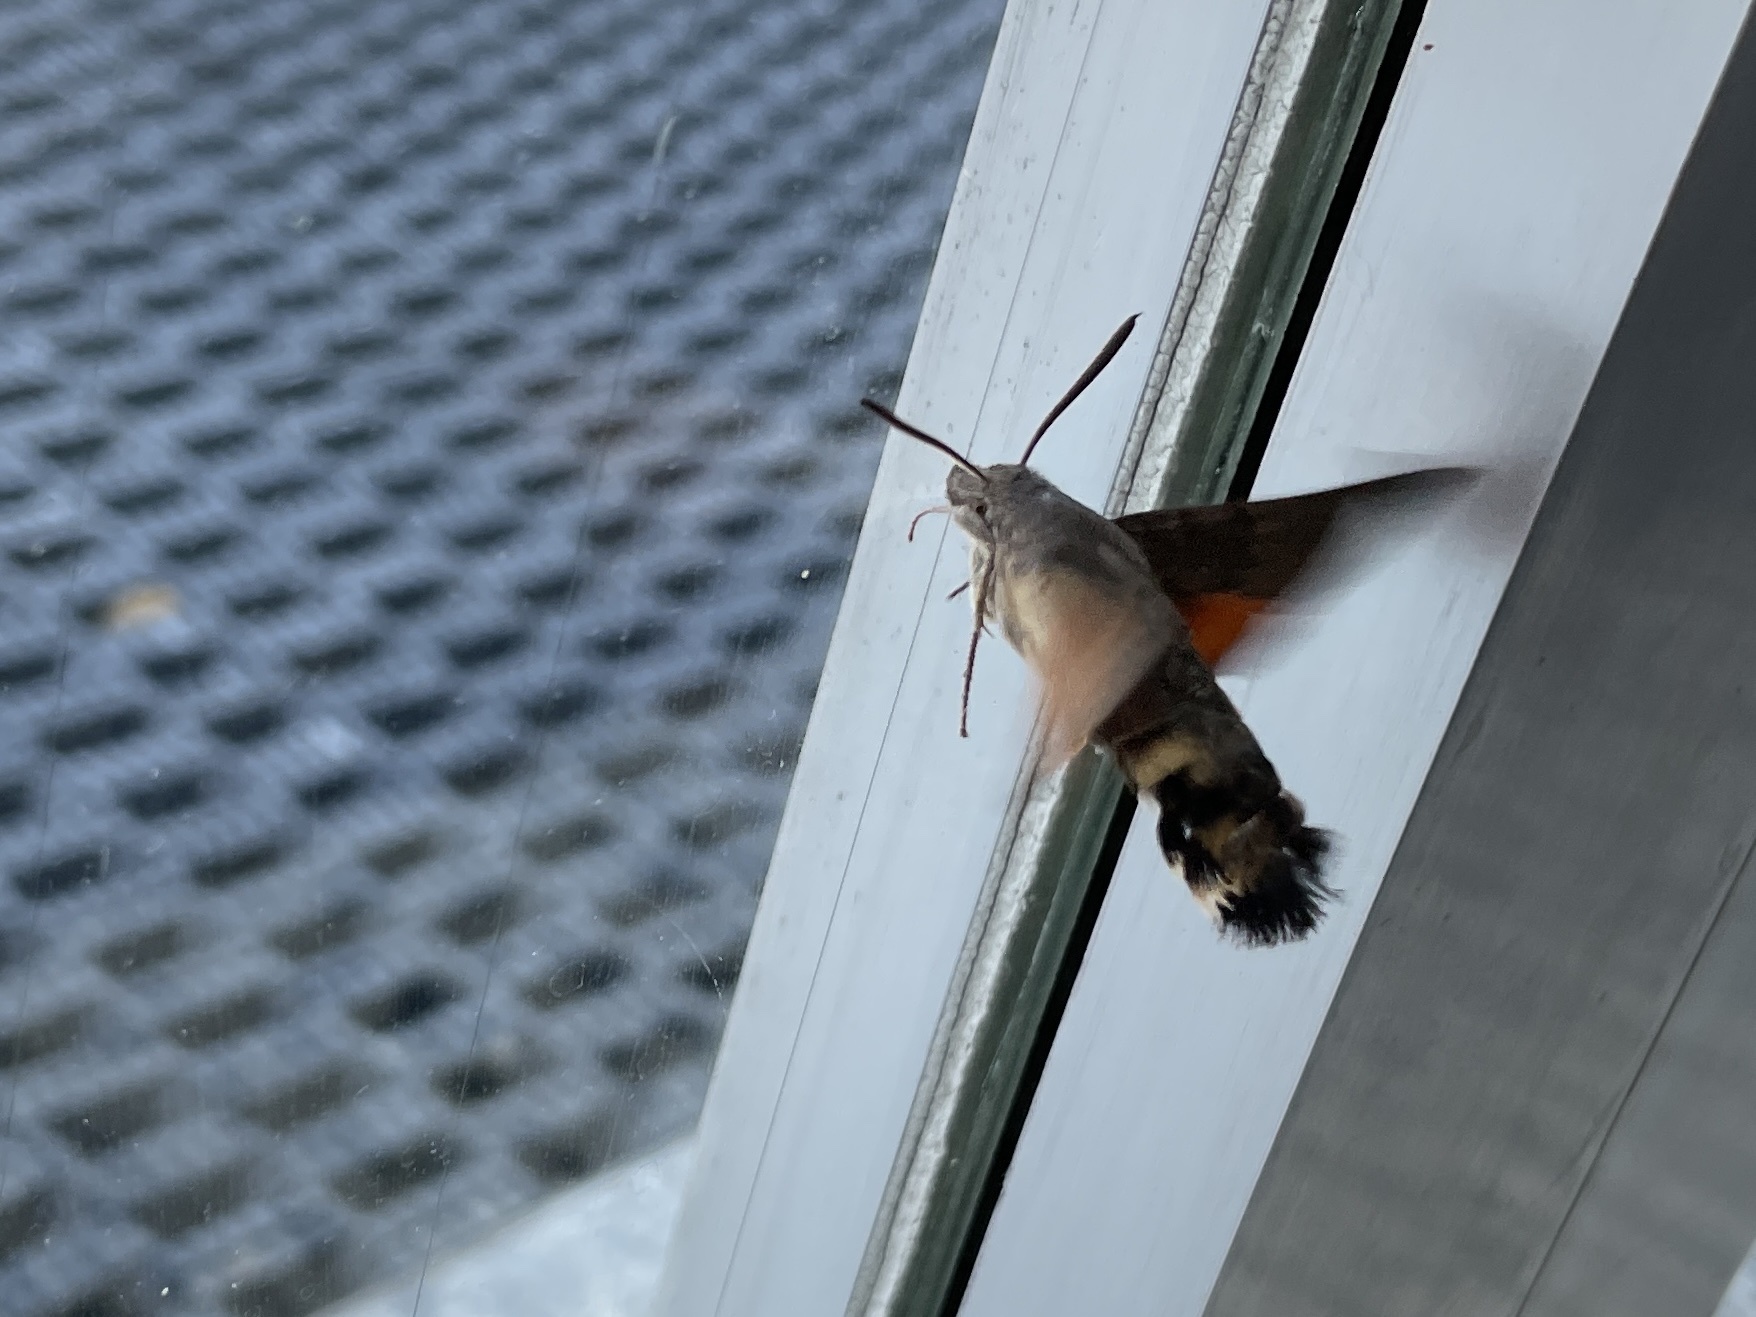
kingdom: Animalia
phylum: Arthropoda
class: Insecta
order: Lepidoptera
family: Sphingidae
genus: Macroglossum
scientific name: Macroglossum stellatarum
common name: Humming-bird hawk-moth
